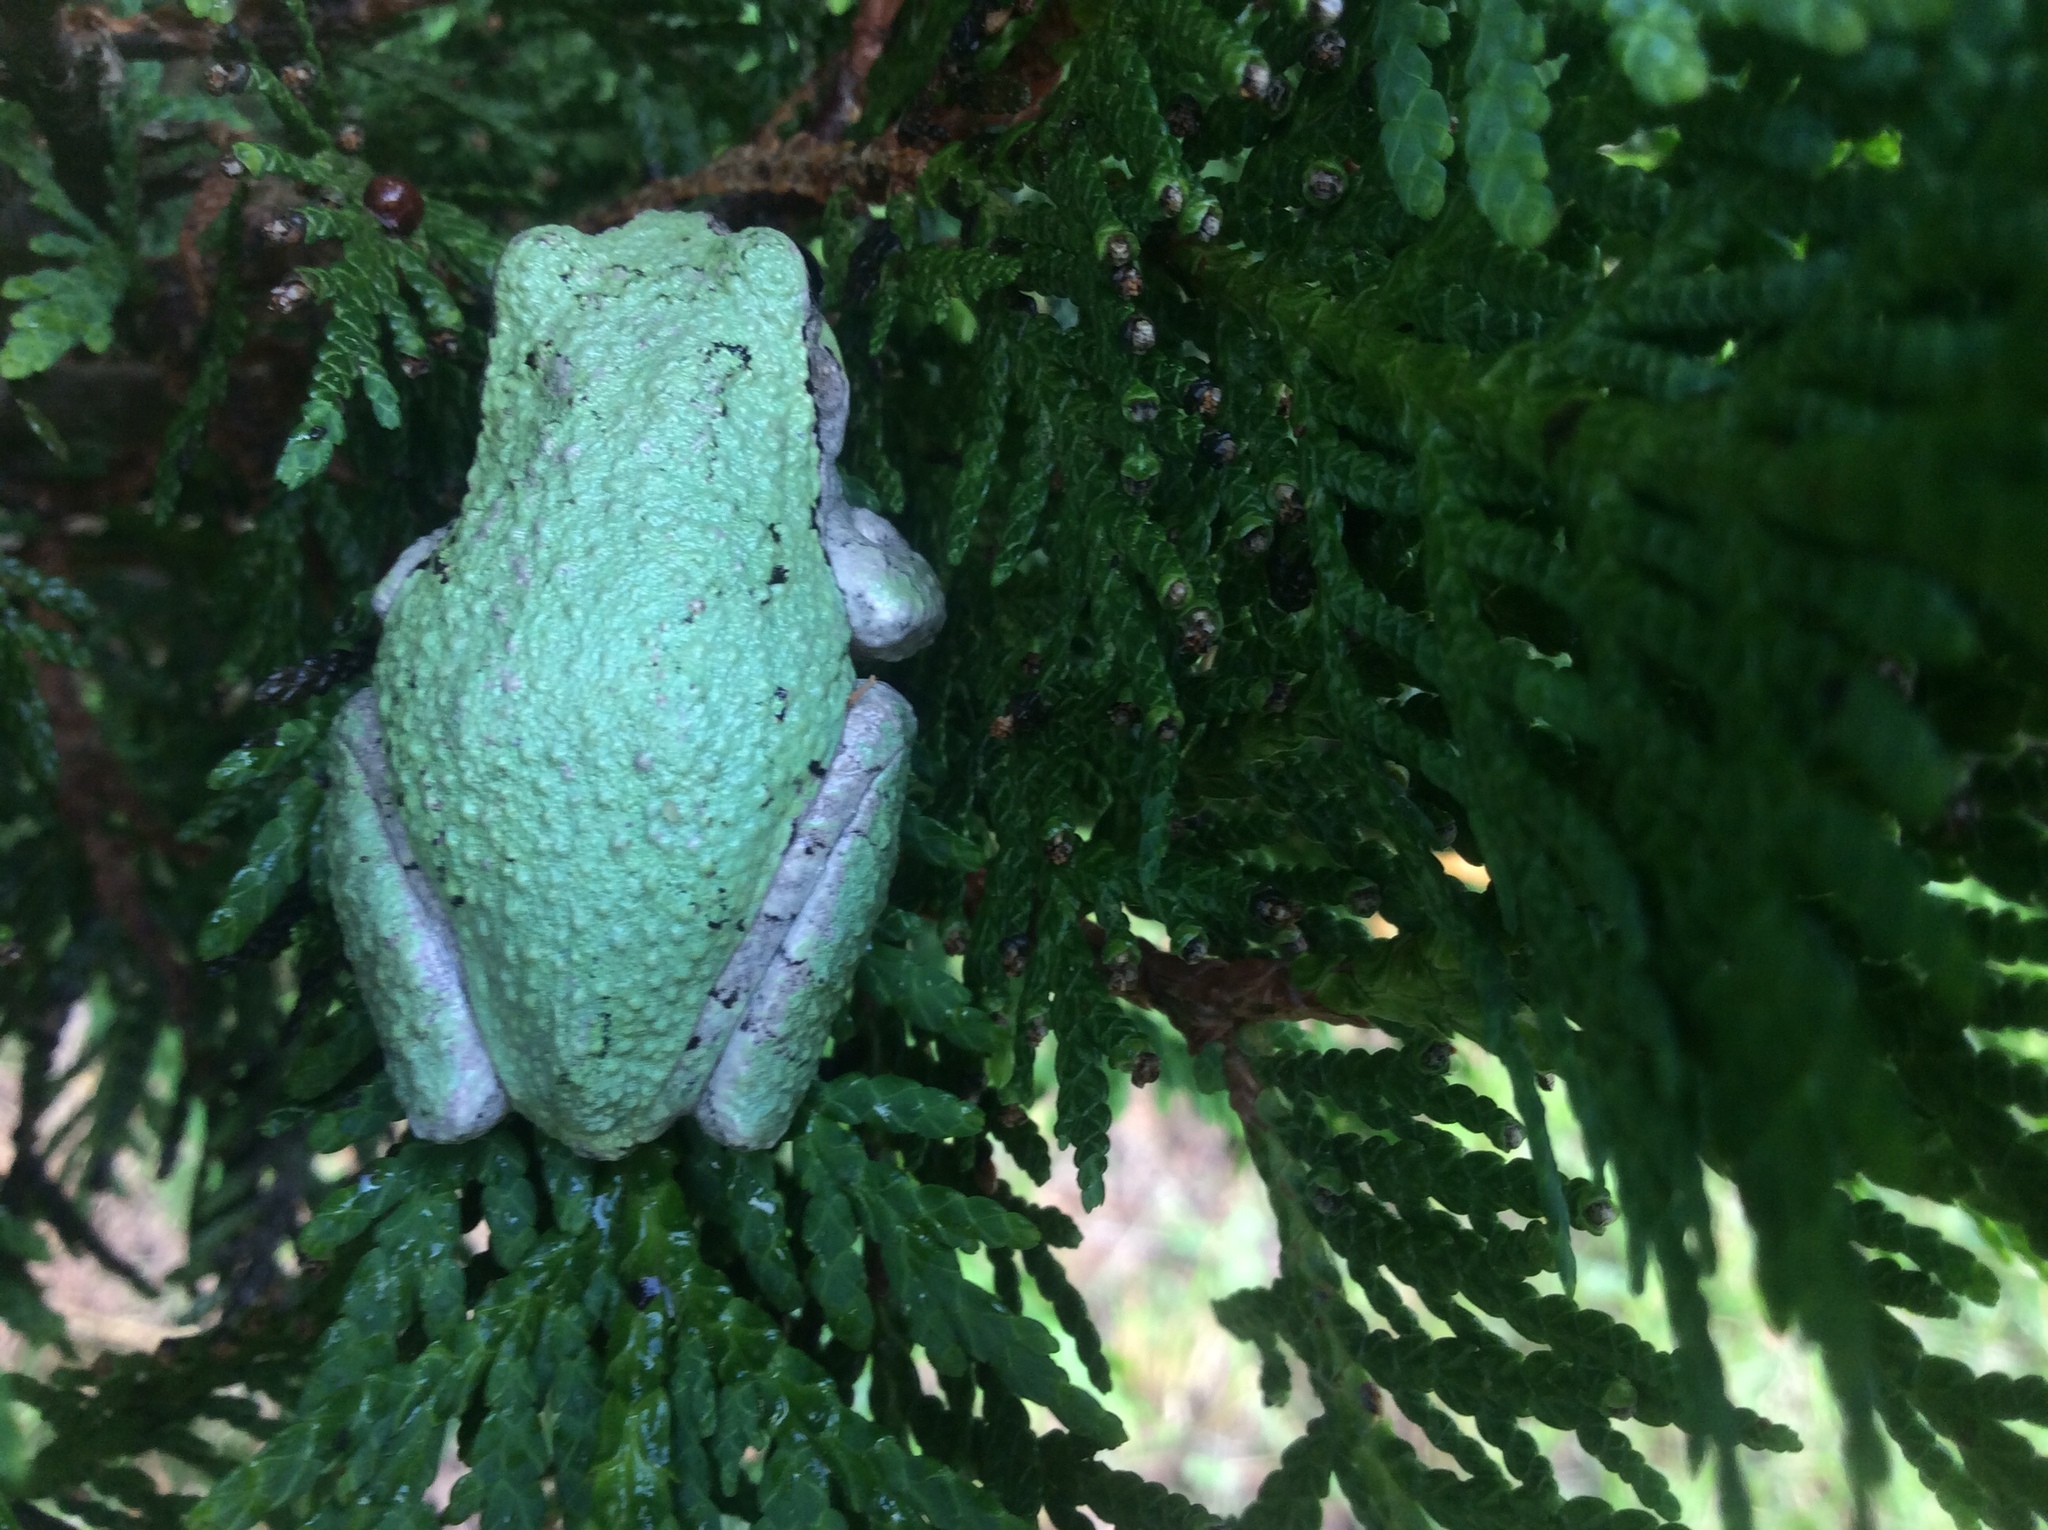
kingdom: Animalia
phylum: Chordata
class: Amphibia
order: Anura
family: Hylidae
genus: Dryophytes
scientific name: Dryophytes versicolor
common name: Gray treefrog
